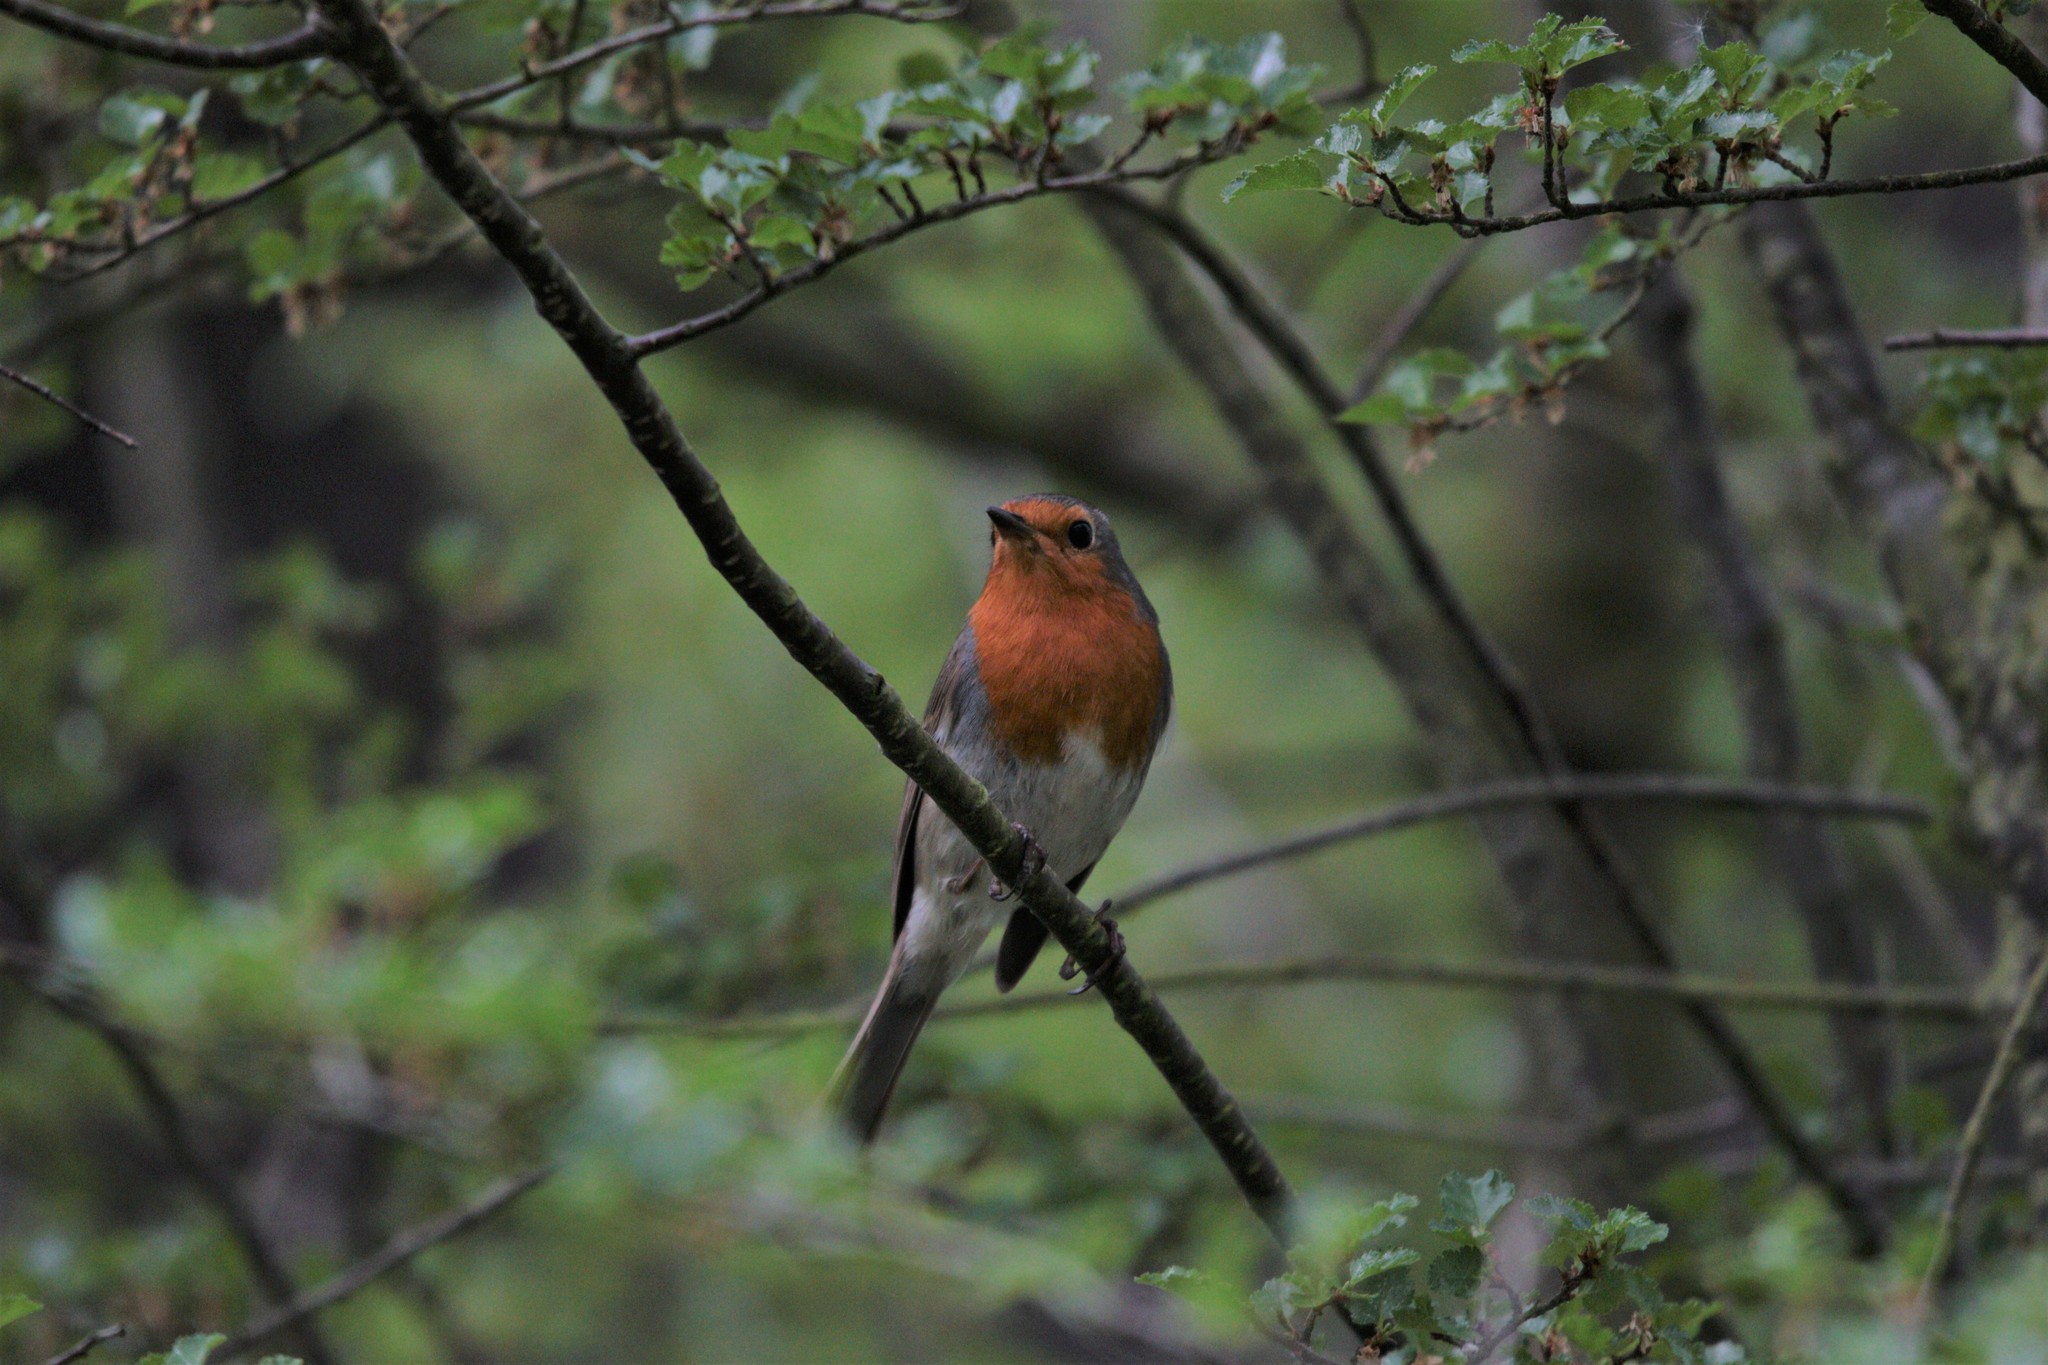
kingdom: Animalia
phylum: Chordata
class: Aves
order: Passeriformes
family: Muscicapidae
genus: Erithacus
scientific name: Erithacus rubecula
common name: European robin
